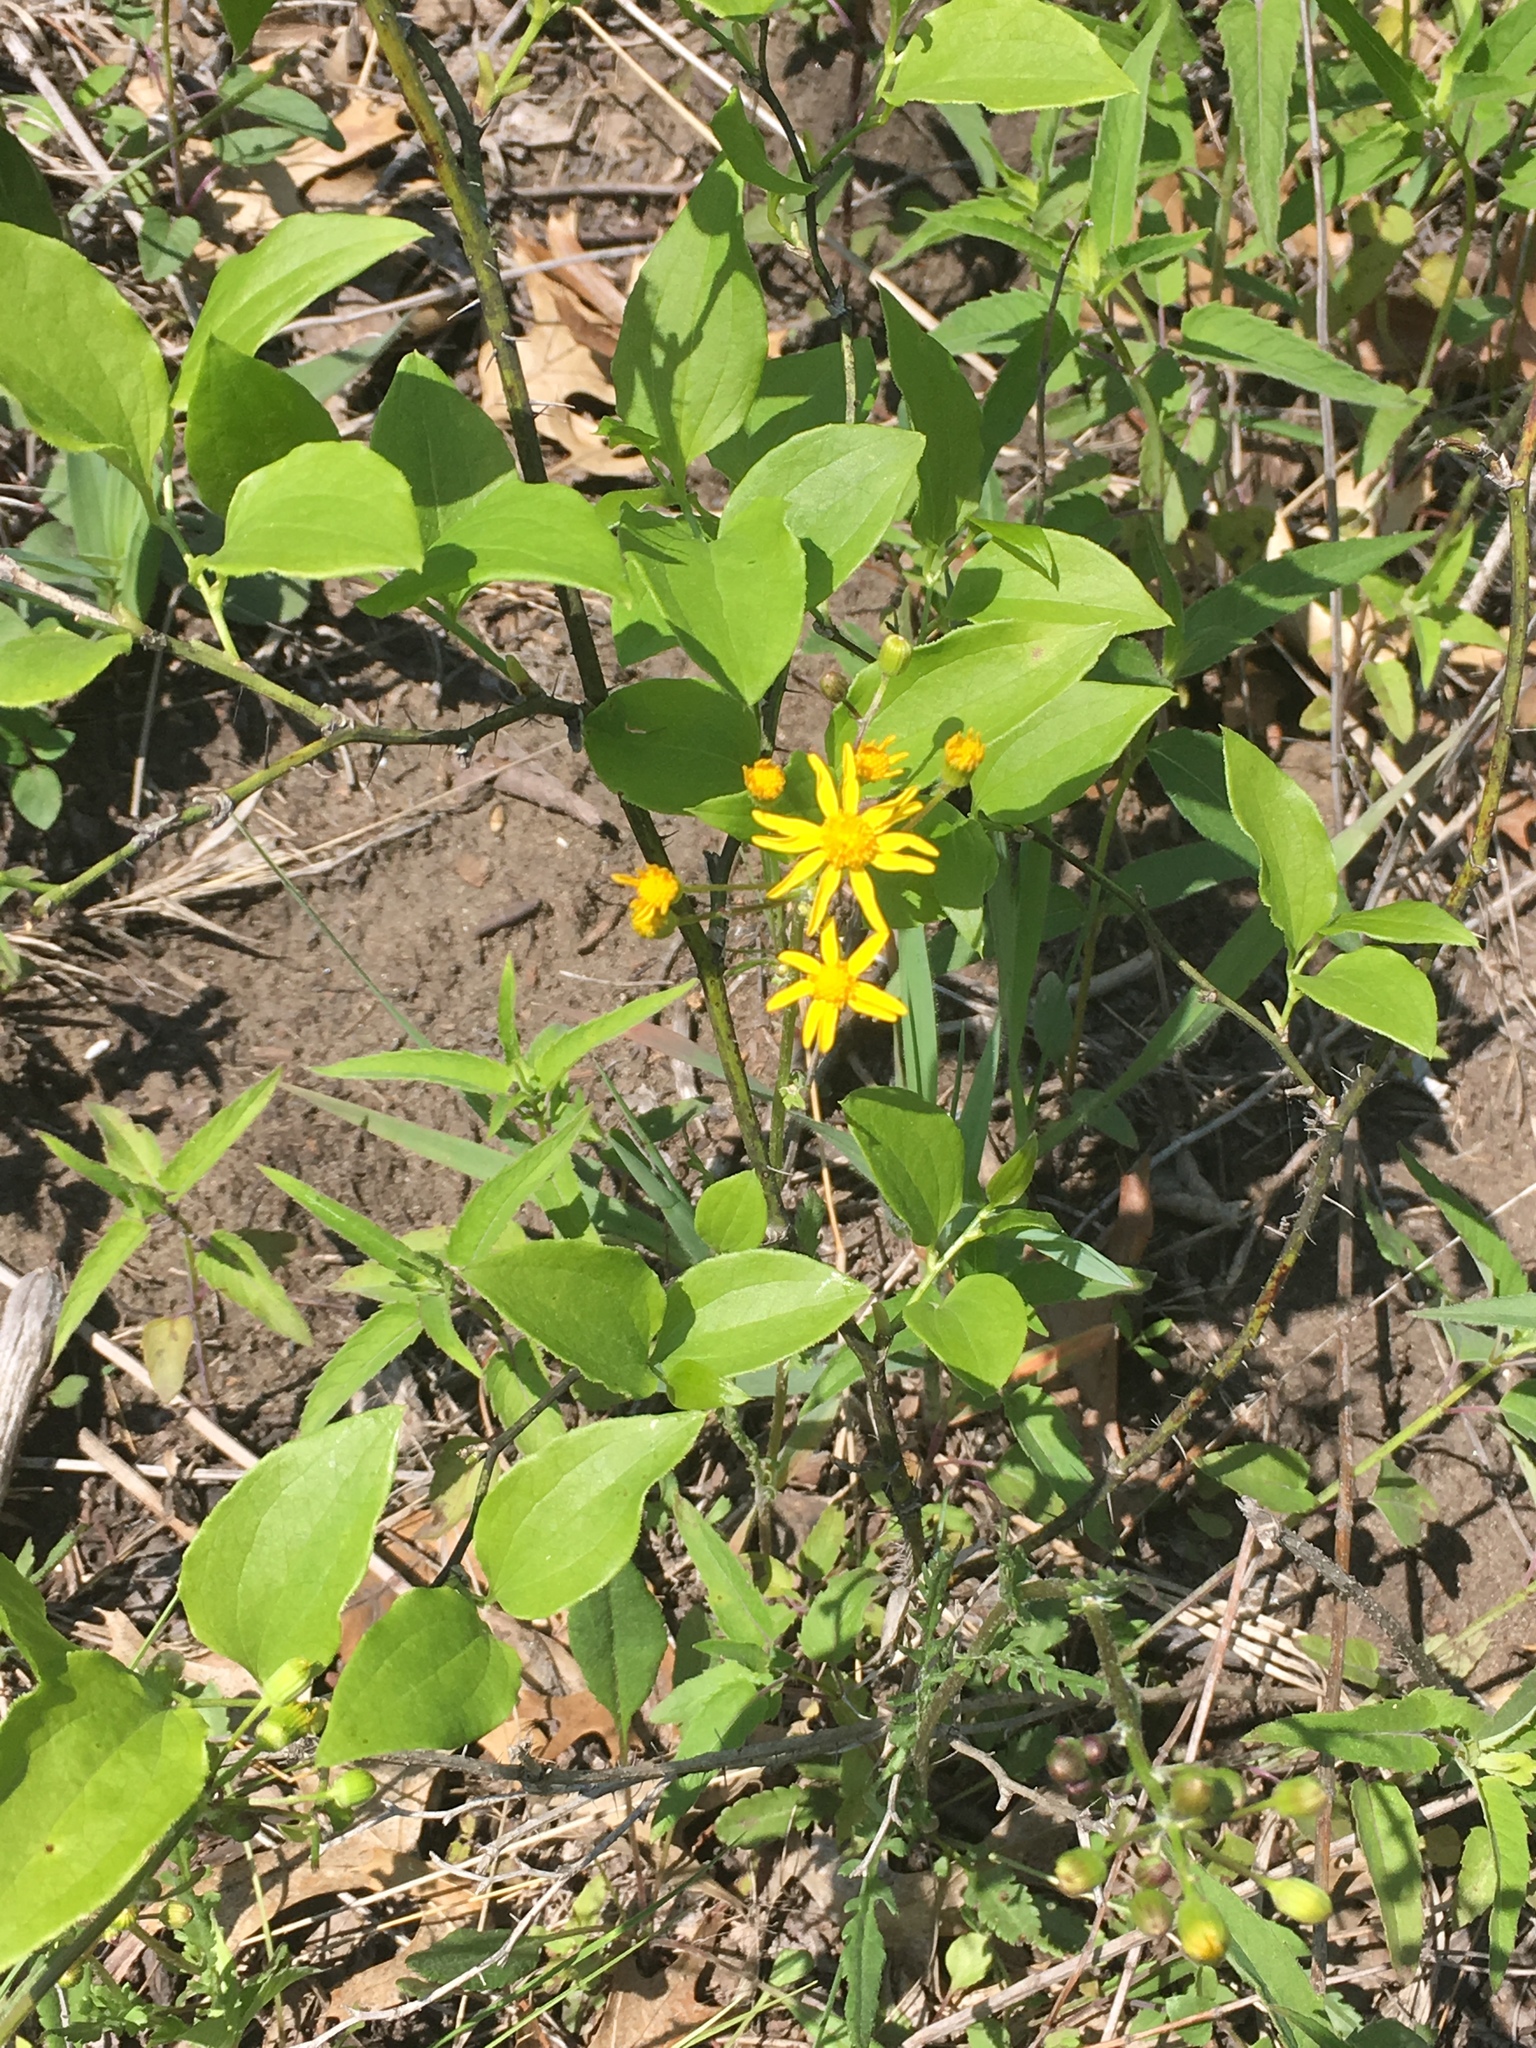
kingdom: Plantae
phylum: Tracheophyta
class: Magnoliopsida
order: Asterales
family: Asteraceae
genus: Packera
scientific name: Packera aurea
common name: Golden groundsel
